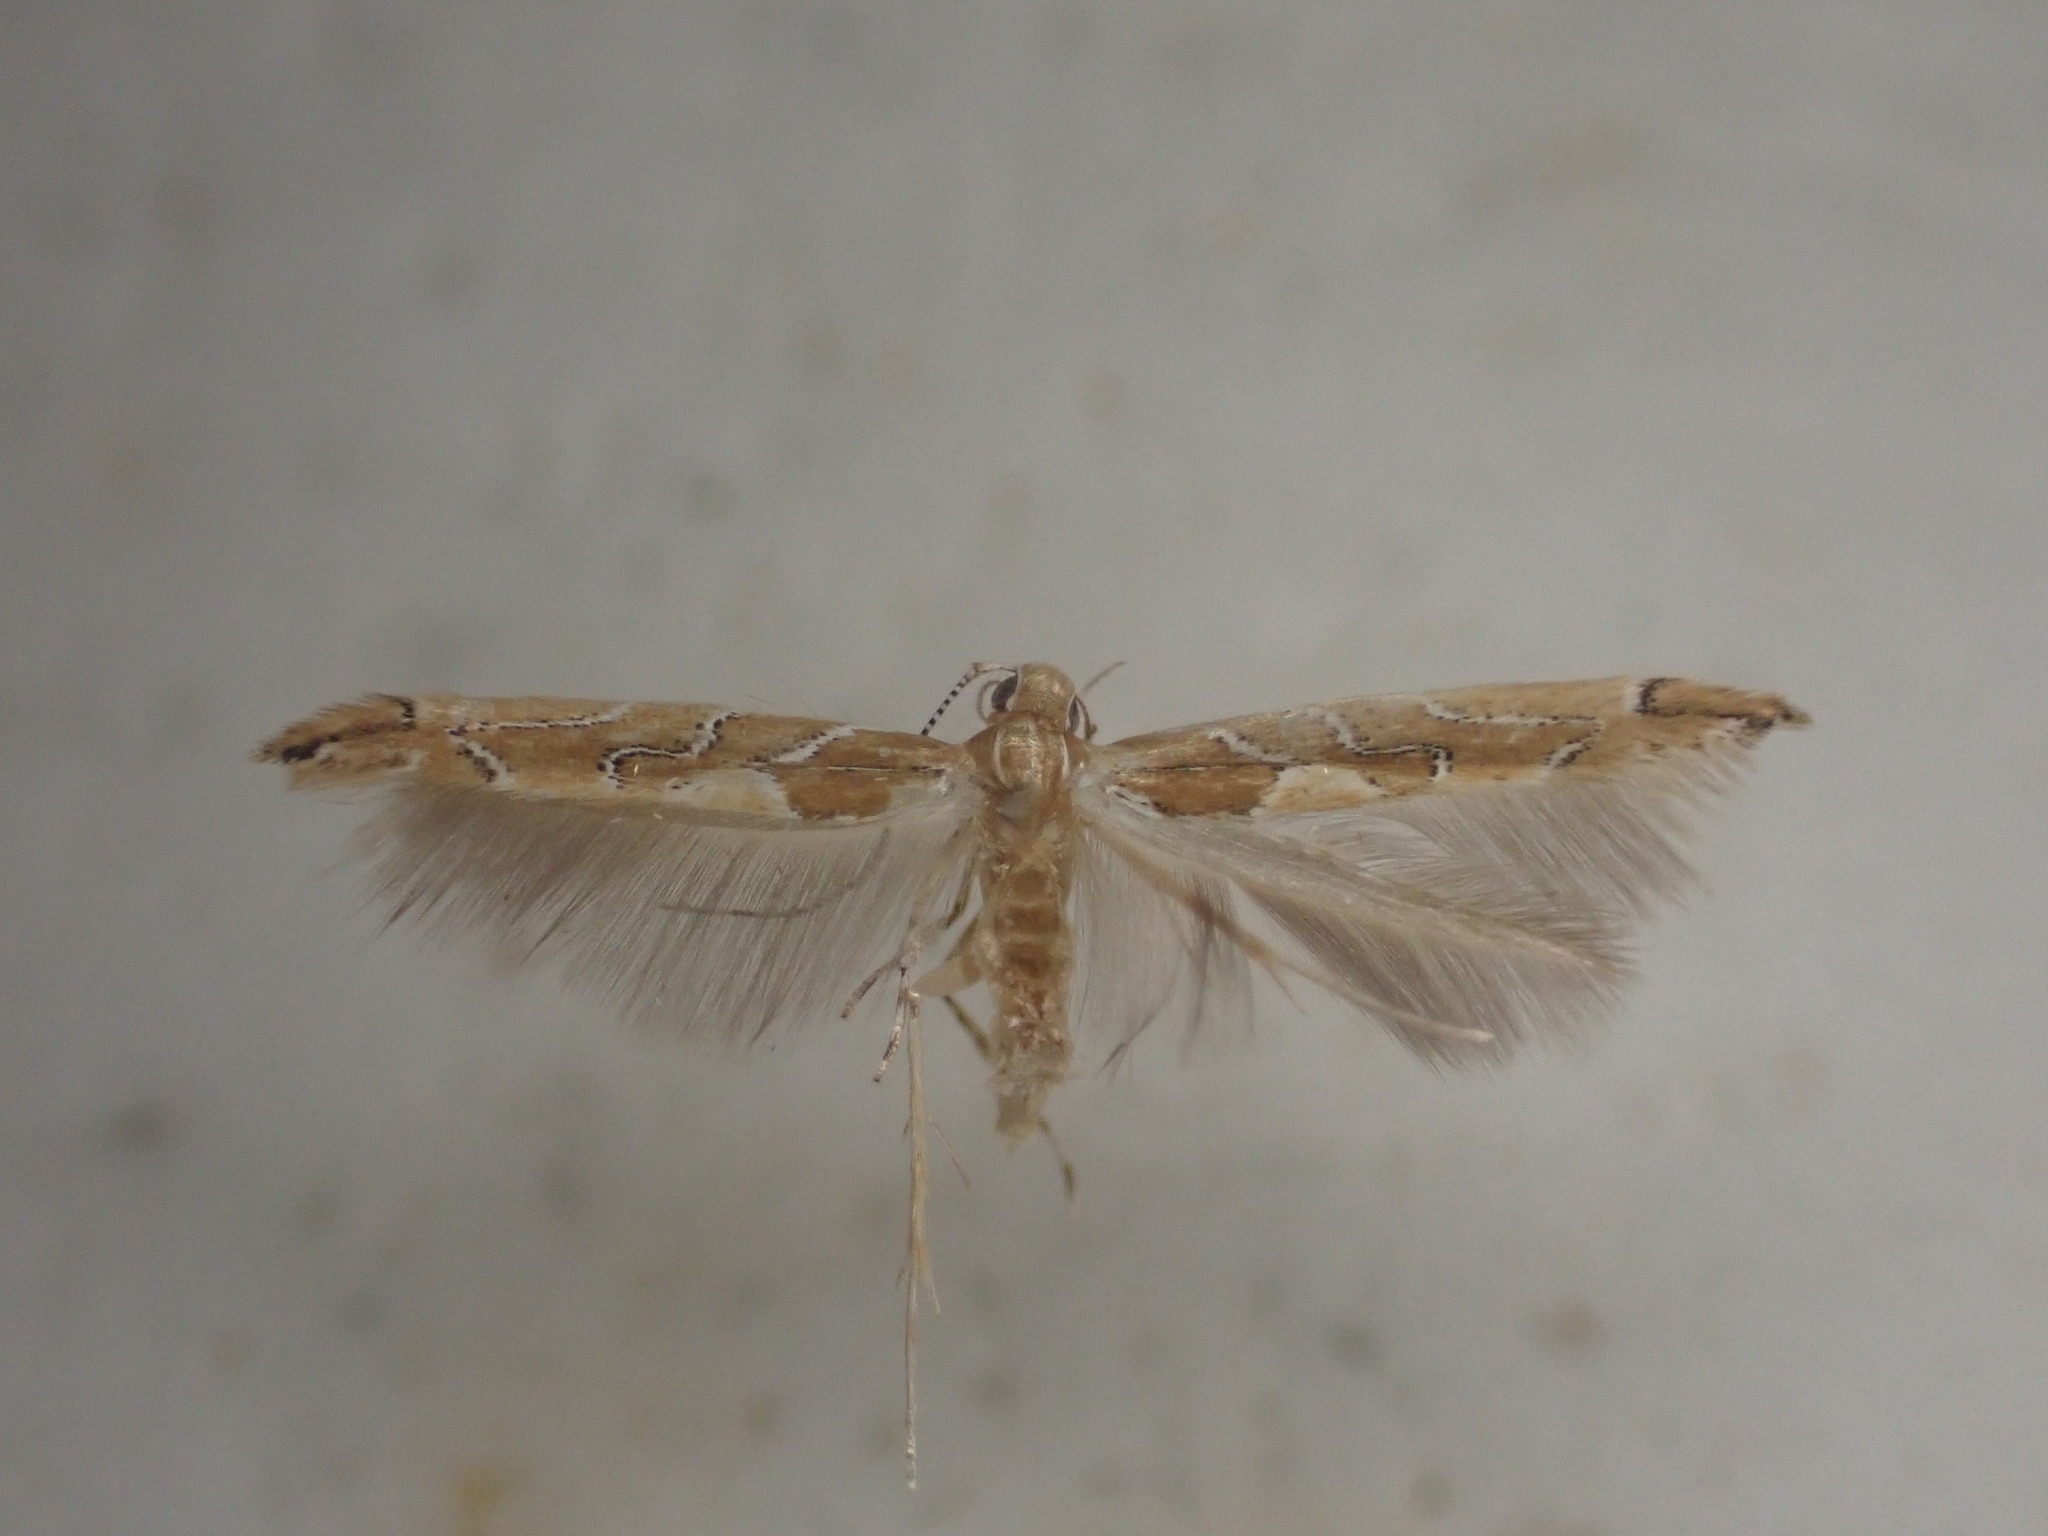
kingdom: Animalia
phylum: Arthropoda
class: Insecta
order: Lepidoptera
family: Cosmopterigidae
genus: Pyroderces
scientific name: Pyroderces apparitella
